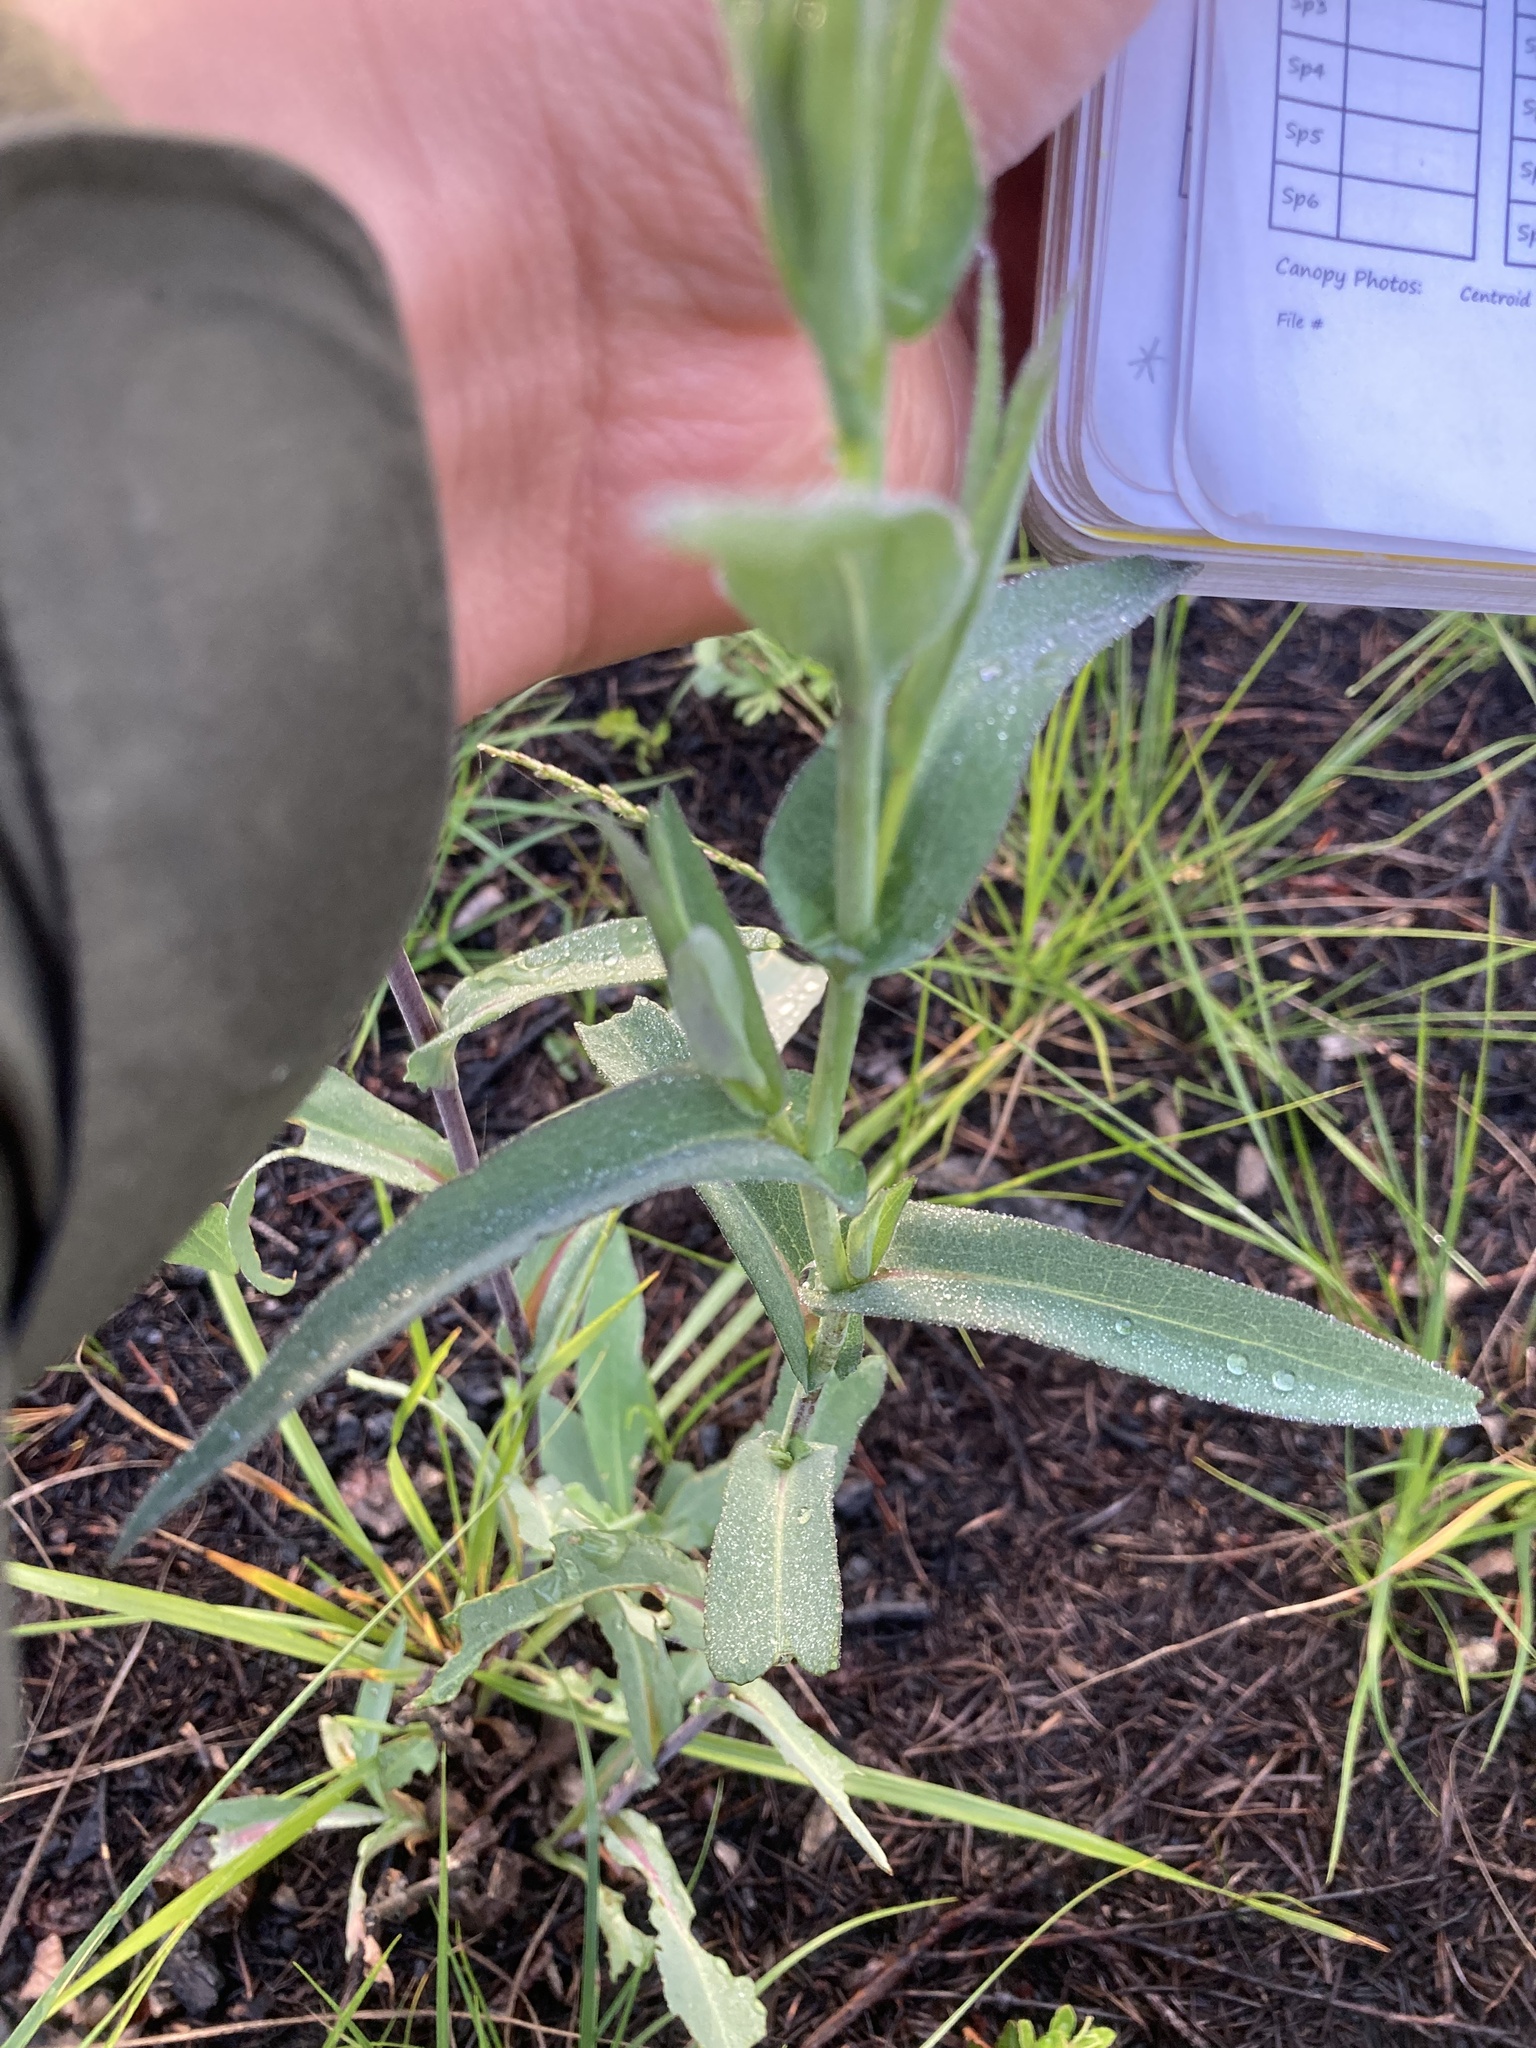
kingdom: Plantae
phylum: Tracheophyta
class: Magnoliopsida
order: Asterales
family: Asteraceae
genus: Symphyotrichum
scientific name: Symphyotrichum laeve
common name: Glaucous aster
